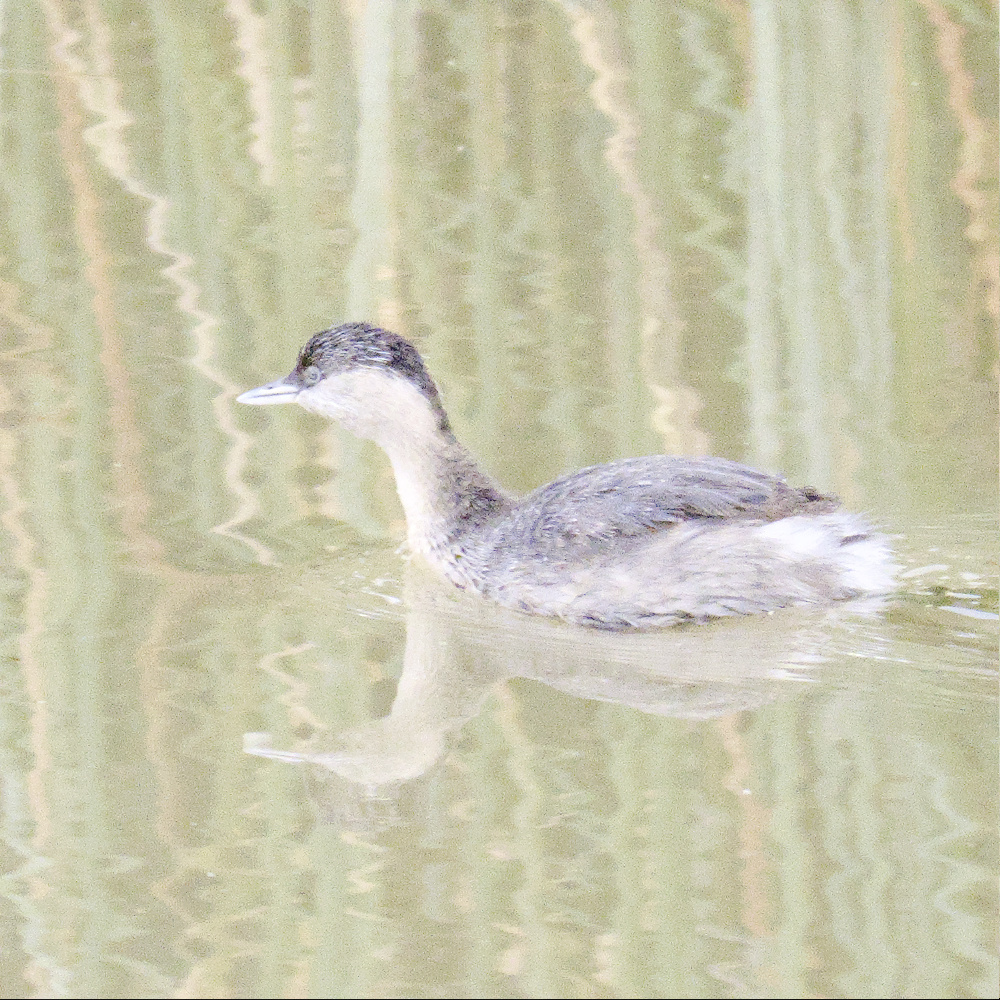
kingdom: Animalia
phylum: Chordata
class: Aves
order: Podicipediformes
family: Podicipedidae
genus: Poliocephalus
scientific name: Poliocephalus poliocephalus
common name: Hoary-headed grebe
